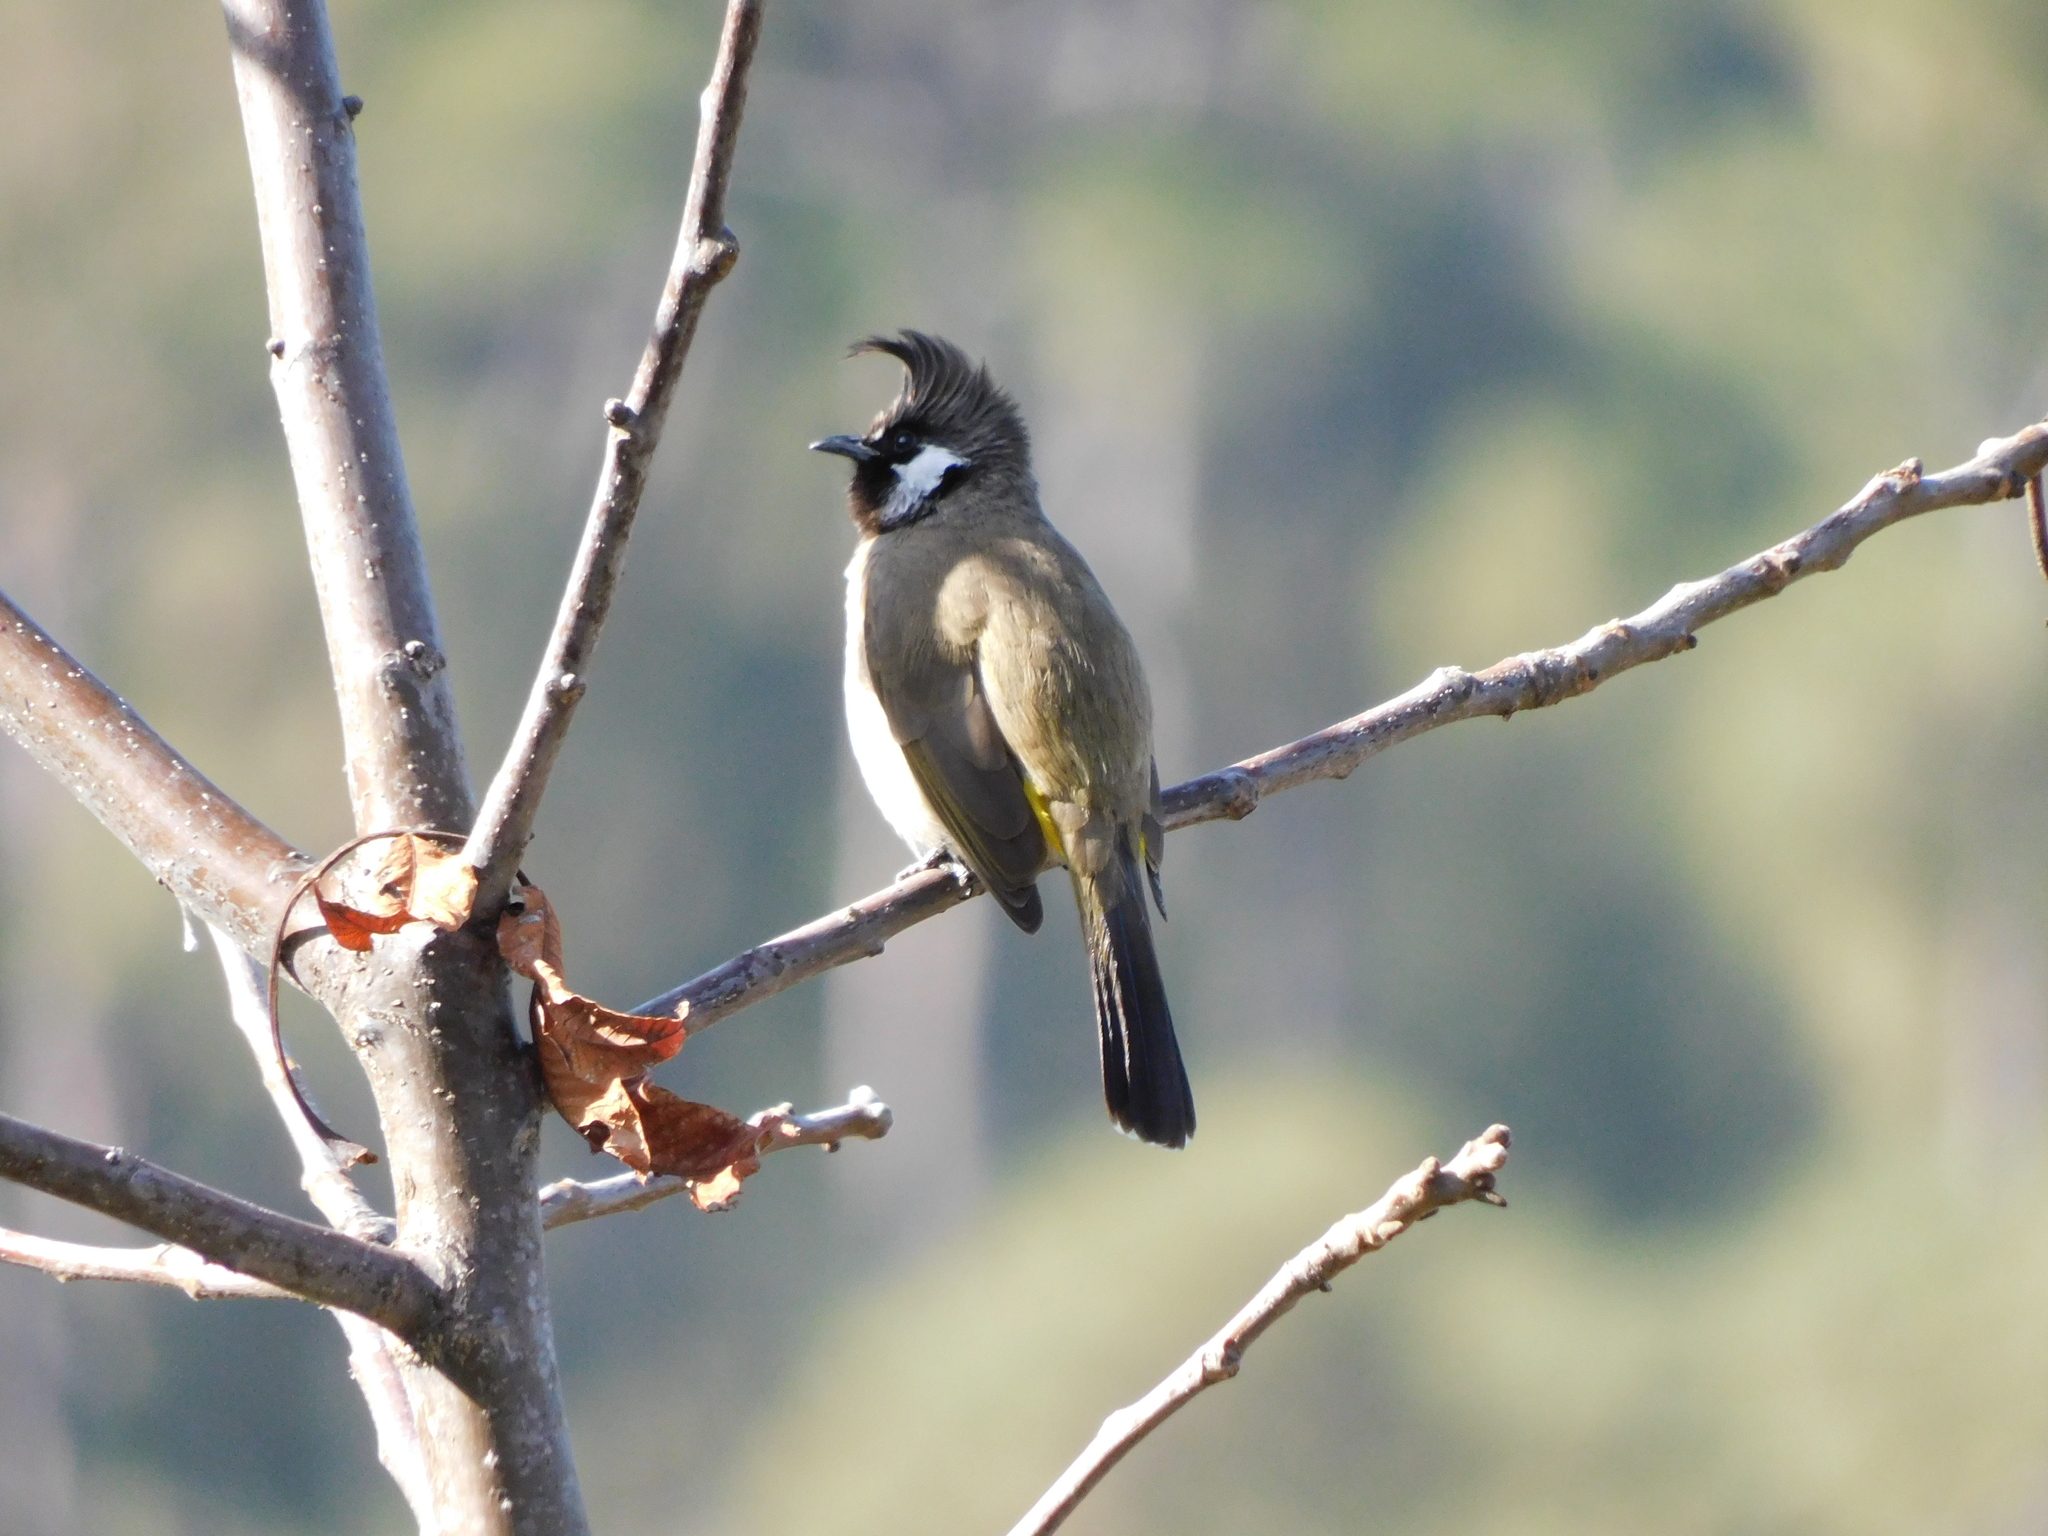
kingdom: Animalia
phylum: Chordata
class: Aves
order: Passeriformes
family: Pycnonotidae
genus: Pycnonotus
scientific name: Pycnonotus leucogenys
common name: Himalayan bulbul
